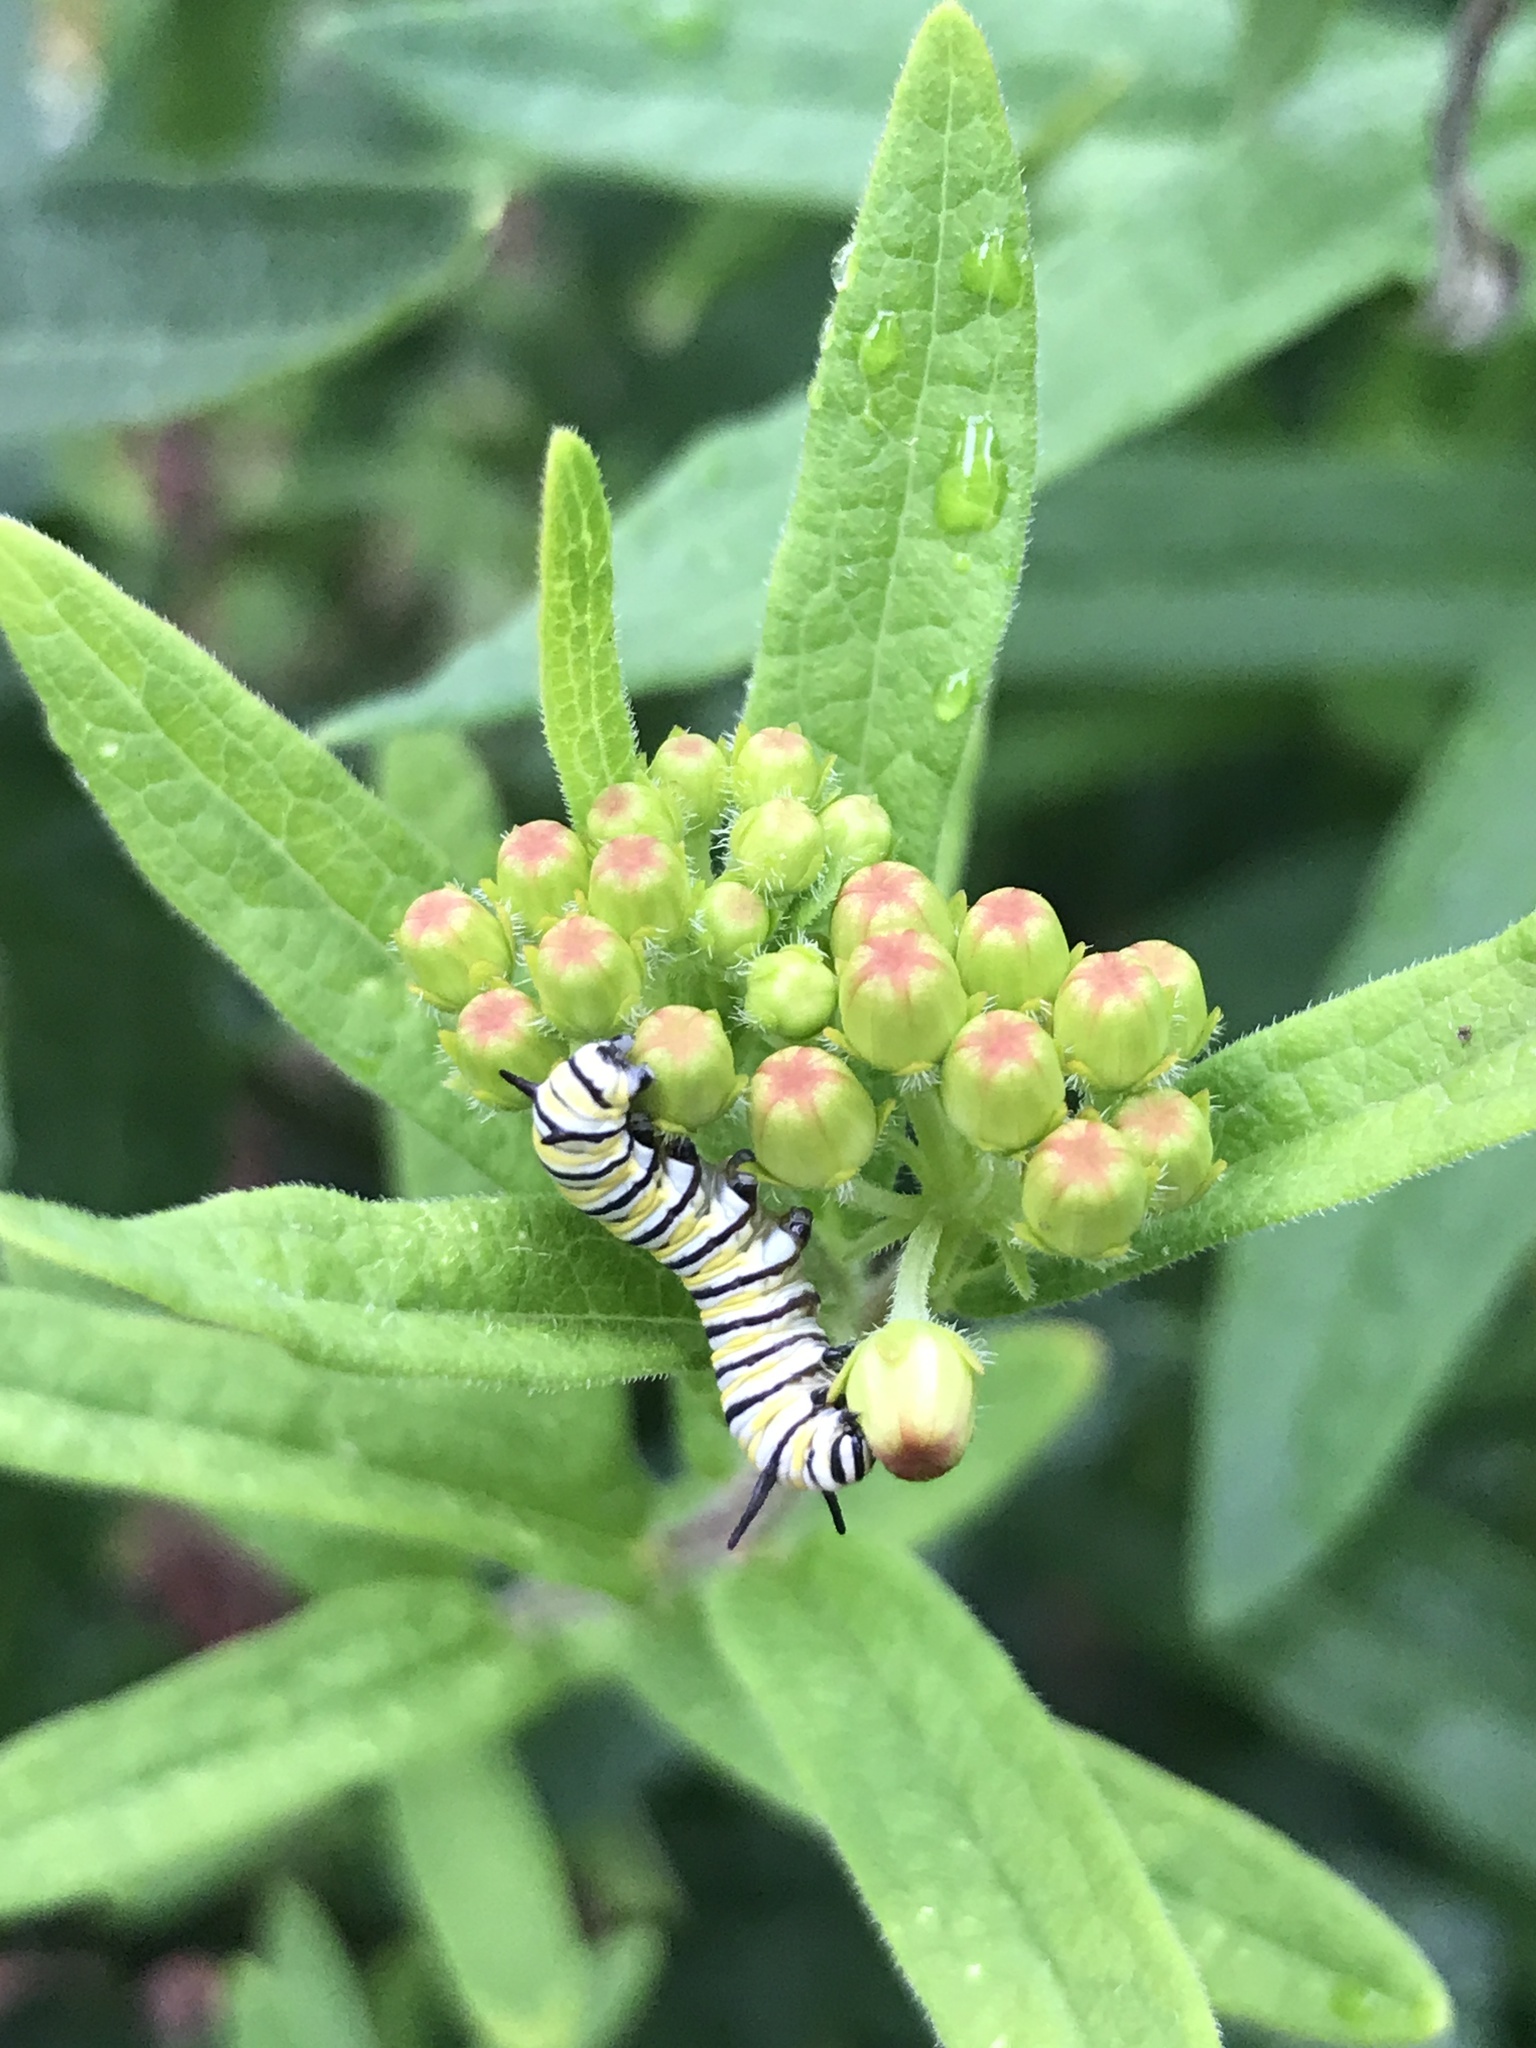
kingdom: Animalia
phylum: Arthropoda
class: Insecta
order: Lepidoptera
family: Nymphalidae
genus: Danaus
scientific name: Danaus plexippus
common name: Monarch
